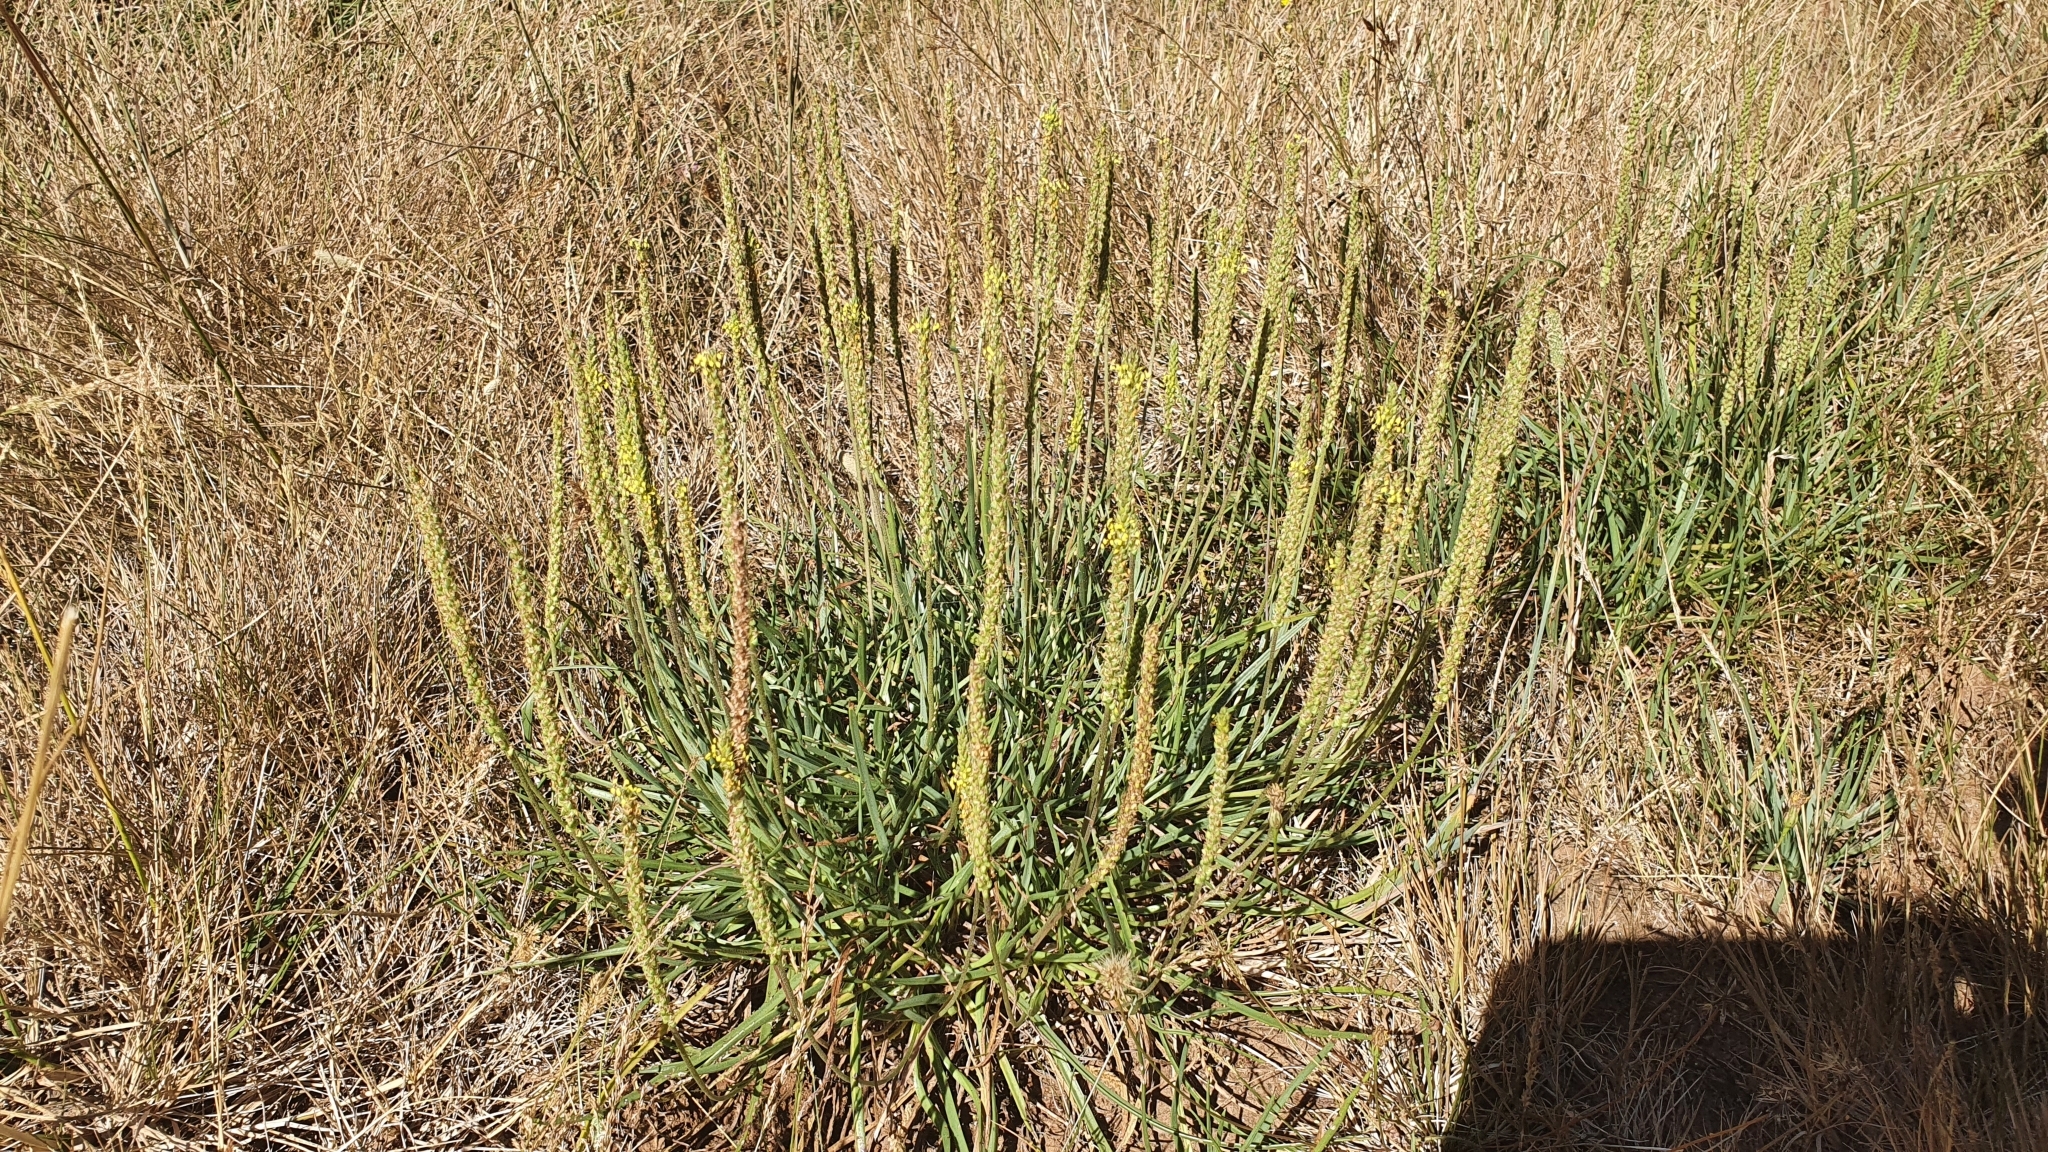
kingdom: Plantae
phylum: Tracheophyta
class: Magnoliopsida
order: Lamiales
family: Plantaginaceae
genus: Plantago
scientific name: Plantago
